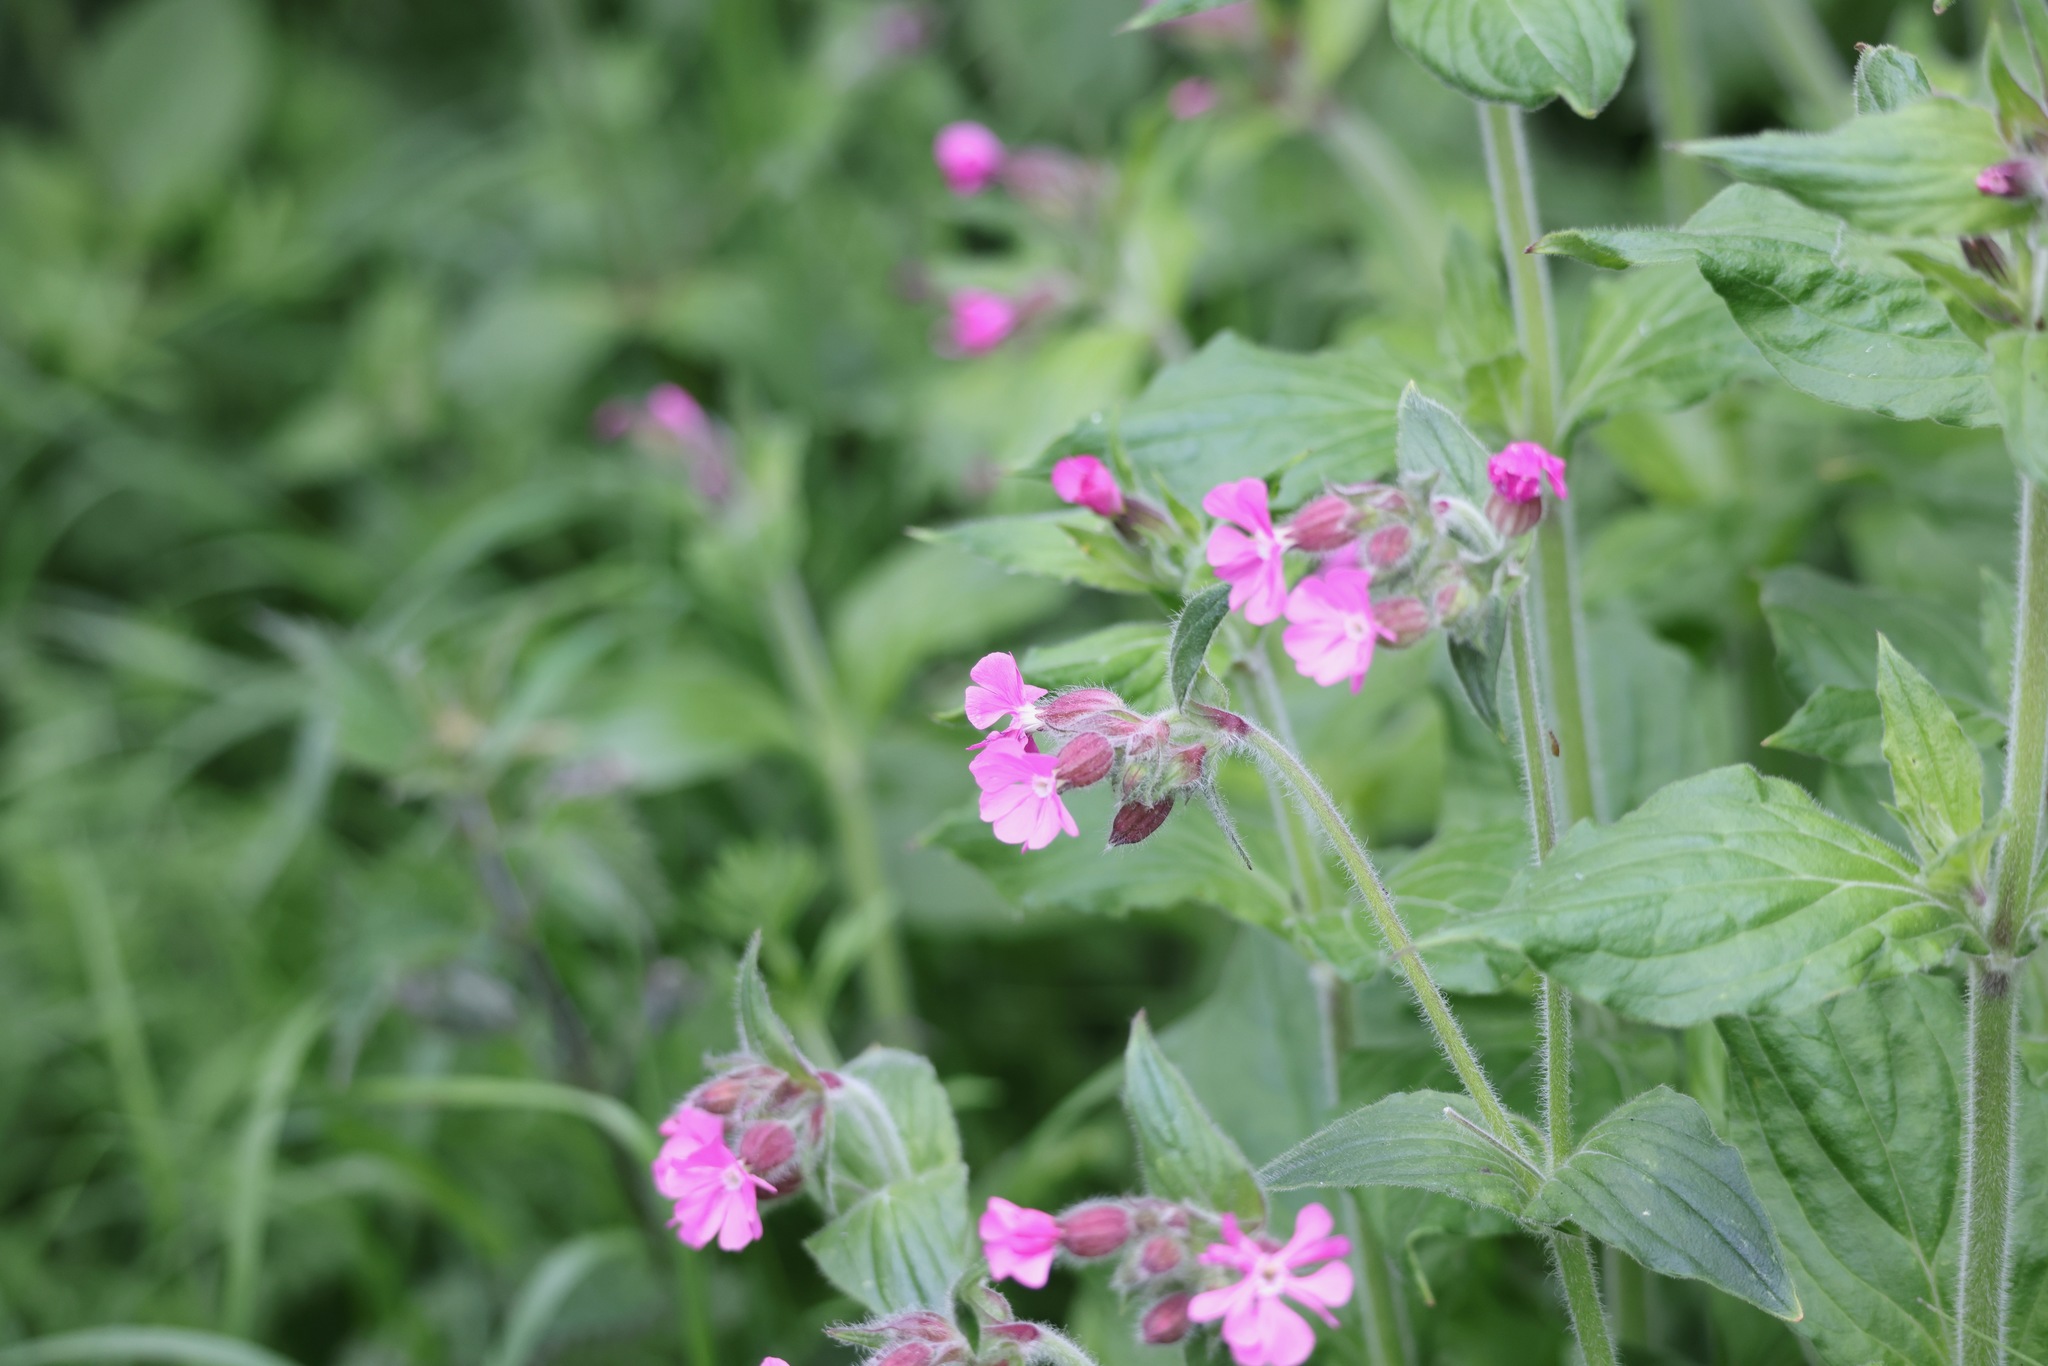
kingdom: Plantae
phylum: Tracheophyta
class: Magnoliopsida
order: Caryophyllales
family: Caryophyllaceae
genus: Silene
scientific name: Silene dioica
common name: Red campion
